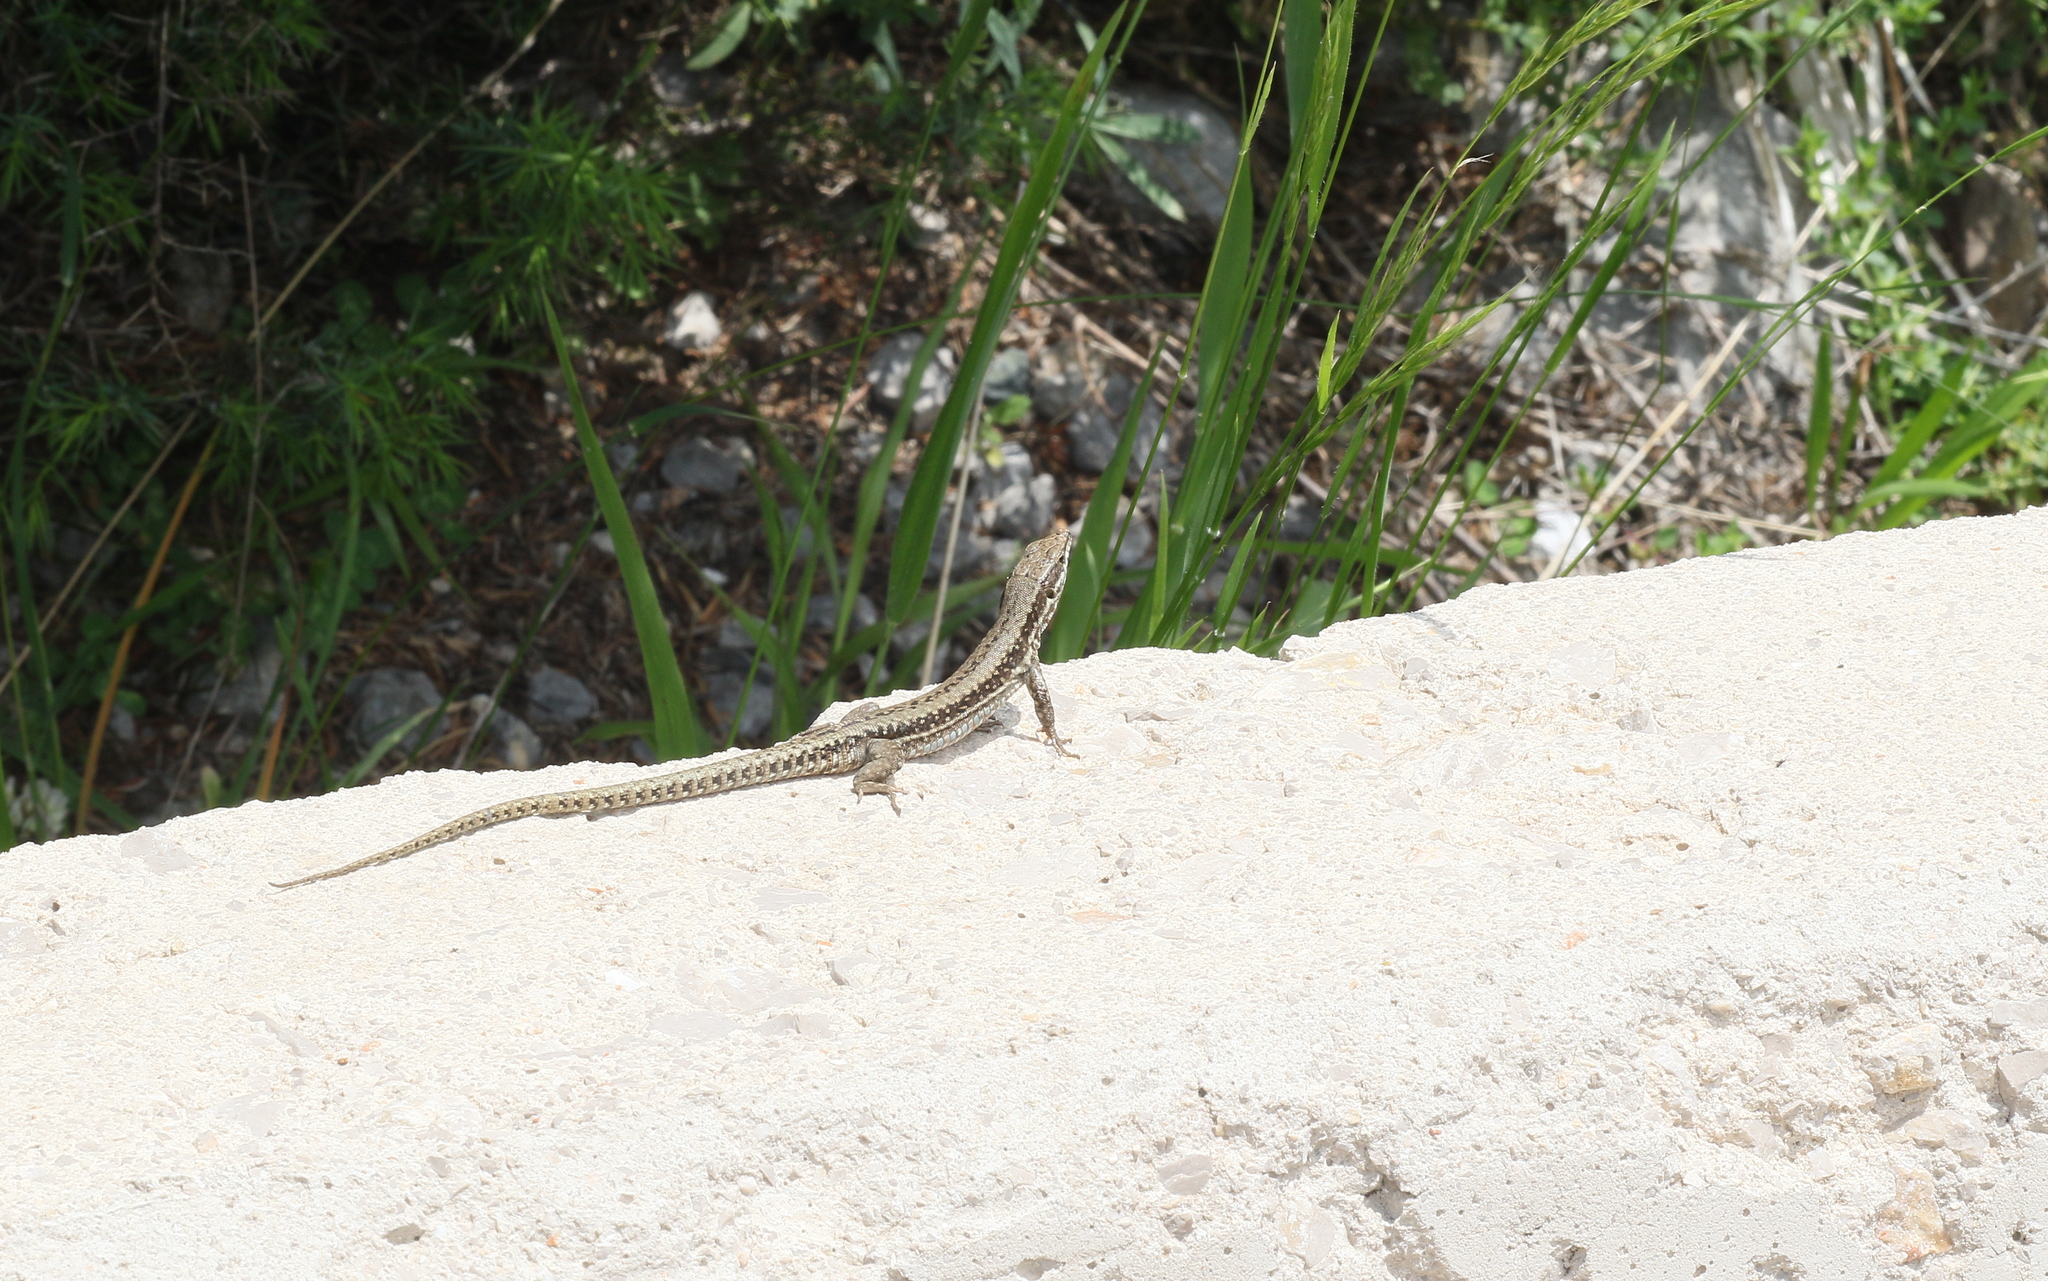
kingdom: Animalia
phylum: Chordata
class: Squamata
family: Lacertidae
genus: Podarcis
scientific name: Podarcis muralis
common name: Common wall lizard
